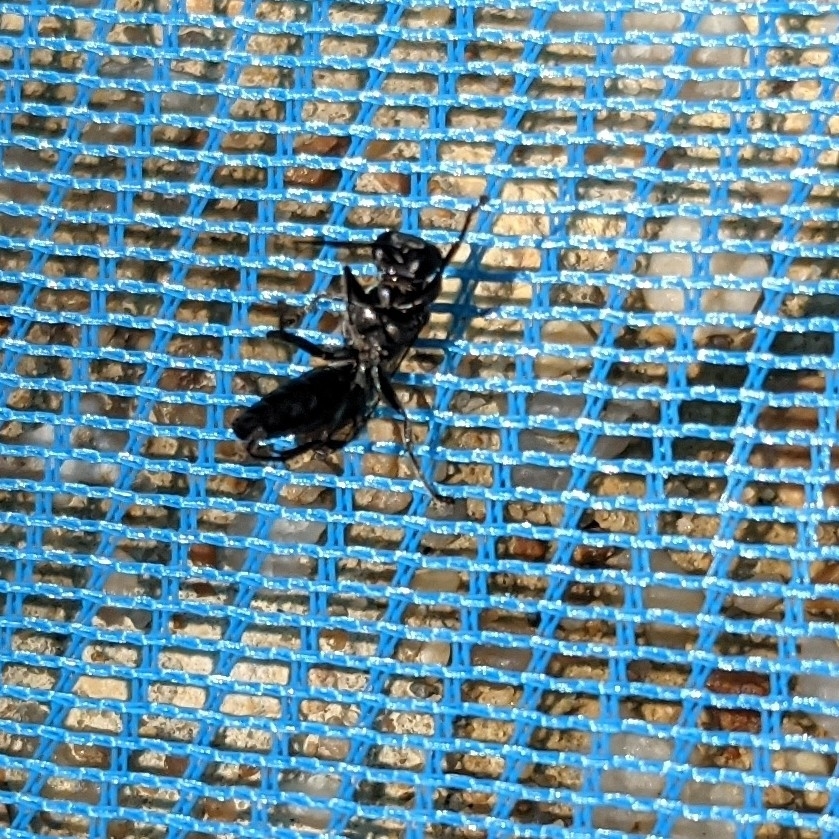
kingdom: Animalia
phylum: Arthropoda
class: Insecta
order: Hymenoptera
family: Crabronidae
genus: Lyroda
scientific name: Lyroda subita
